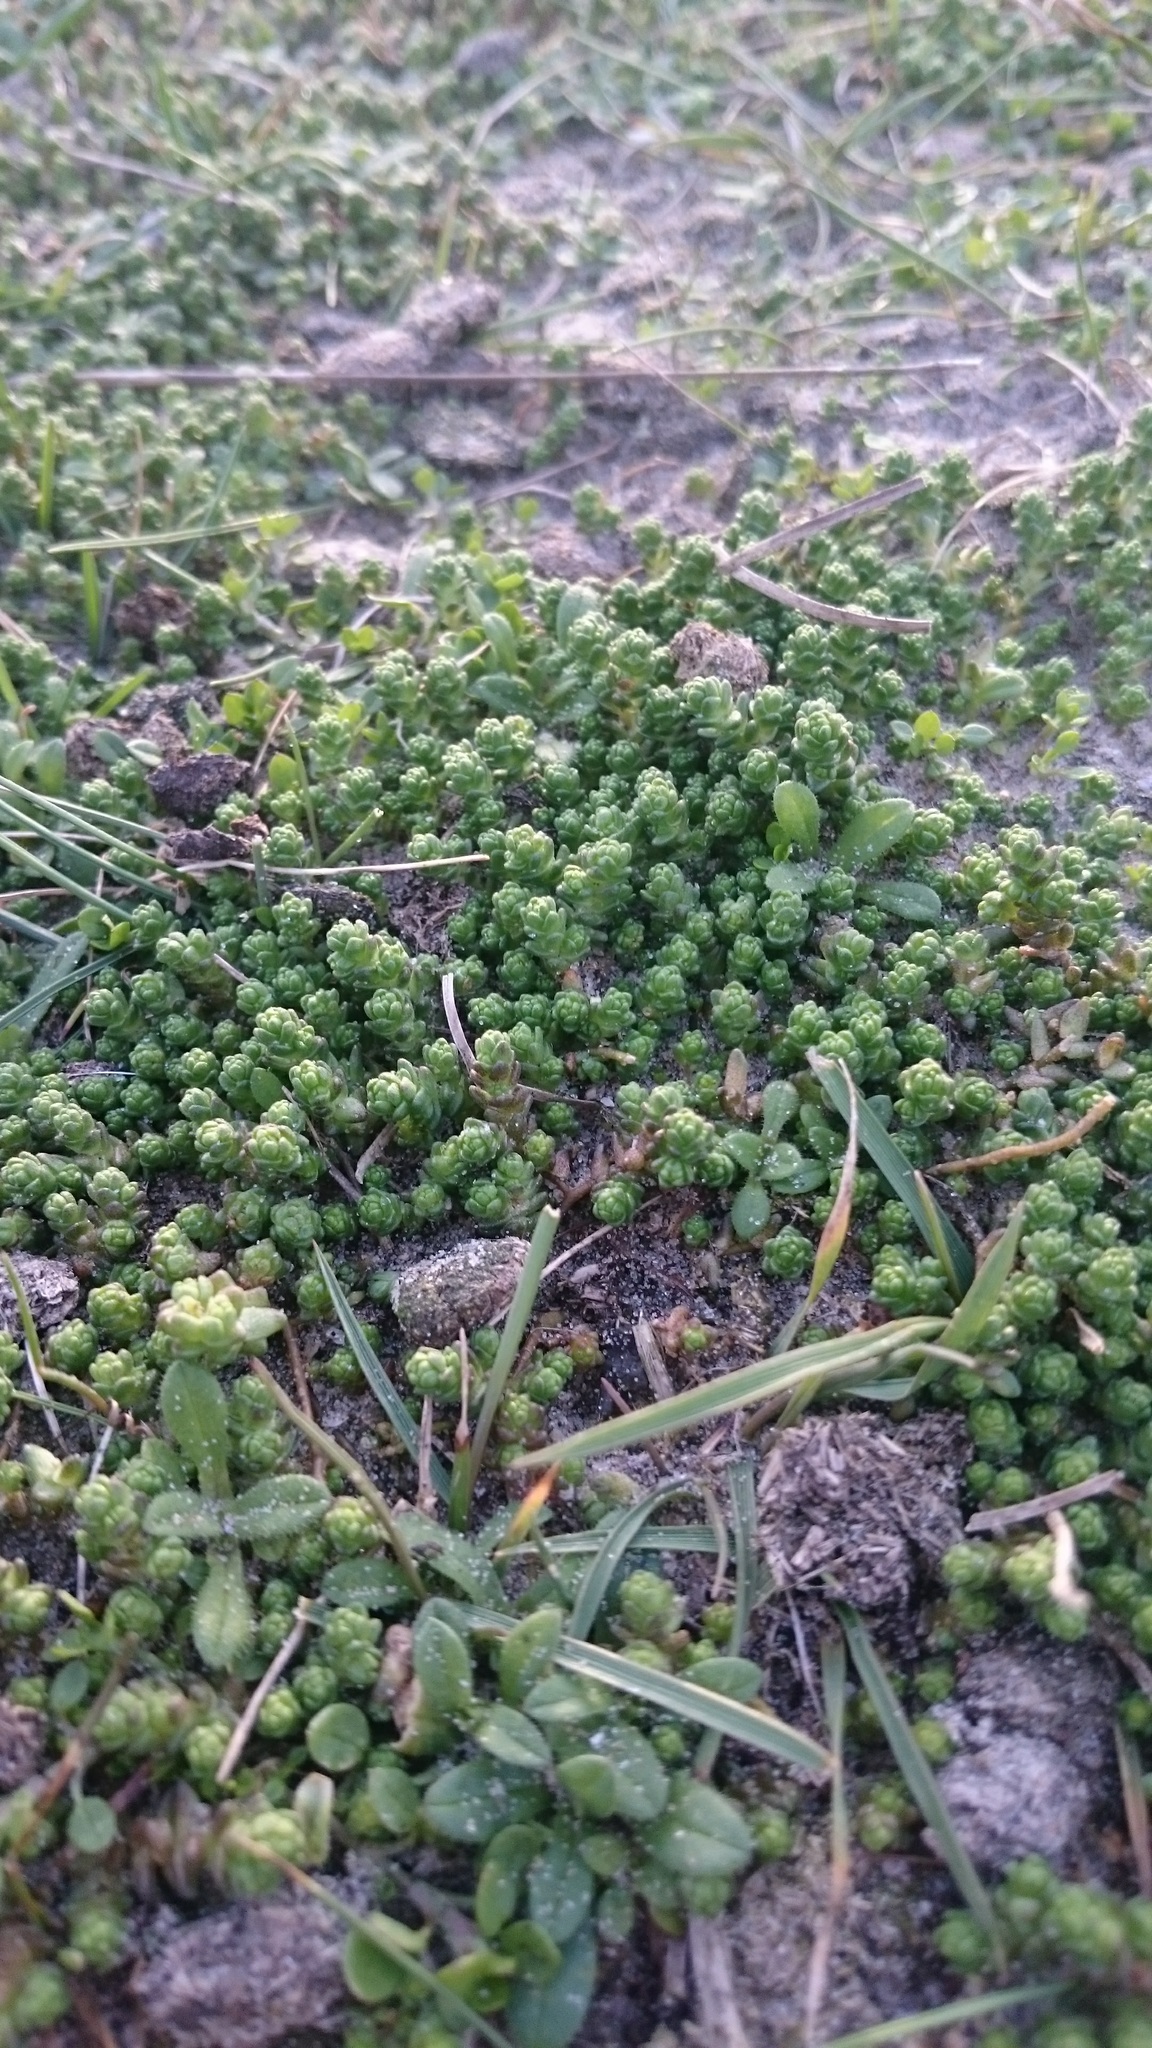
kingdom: Plantae
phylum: Tracheophyta
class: Magnoliopsida
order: Saxifragales
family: Crassulaceae
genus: Sedum
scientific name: Sedum acre
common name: Biting stonecrop
